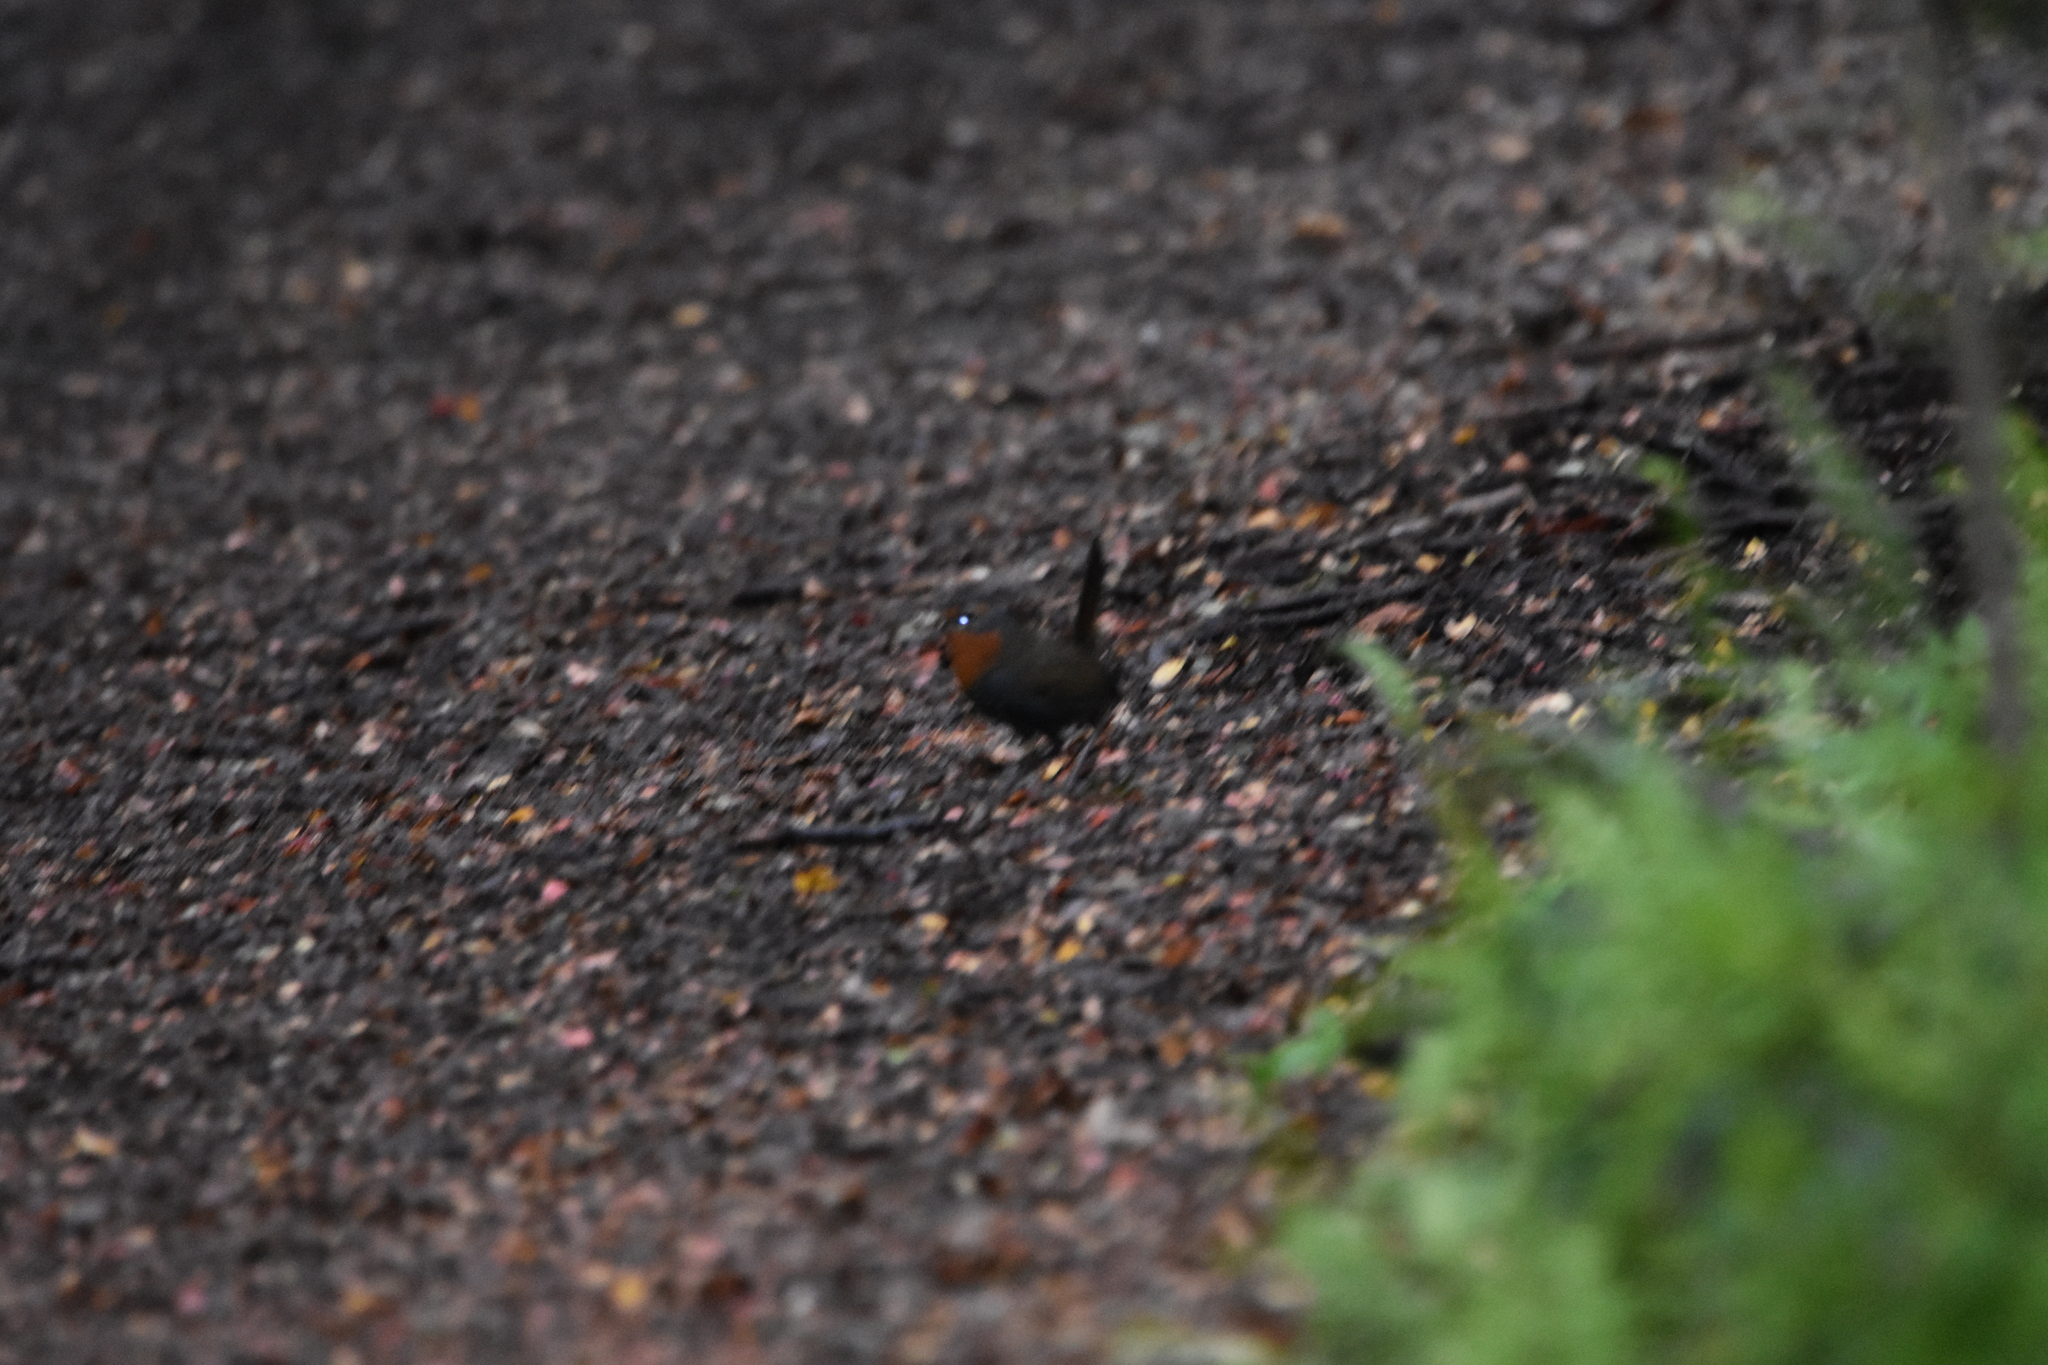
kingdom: Animalia
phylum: Chordata
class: Aves
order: Passeriformes
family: Rhinocryptidae
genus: Scelorchilus
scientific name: Scelorchilus rubecula
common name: Chucao tapaculo
